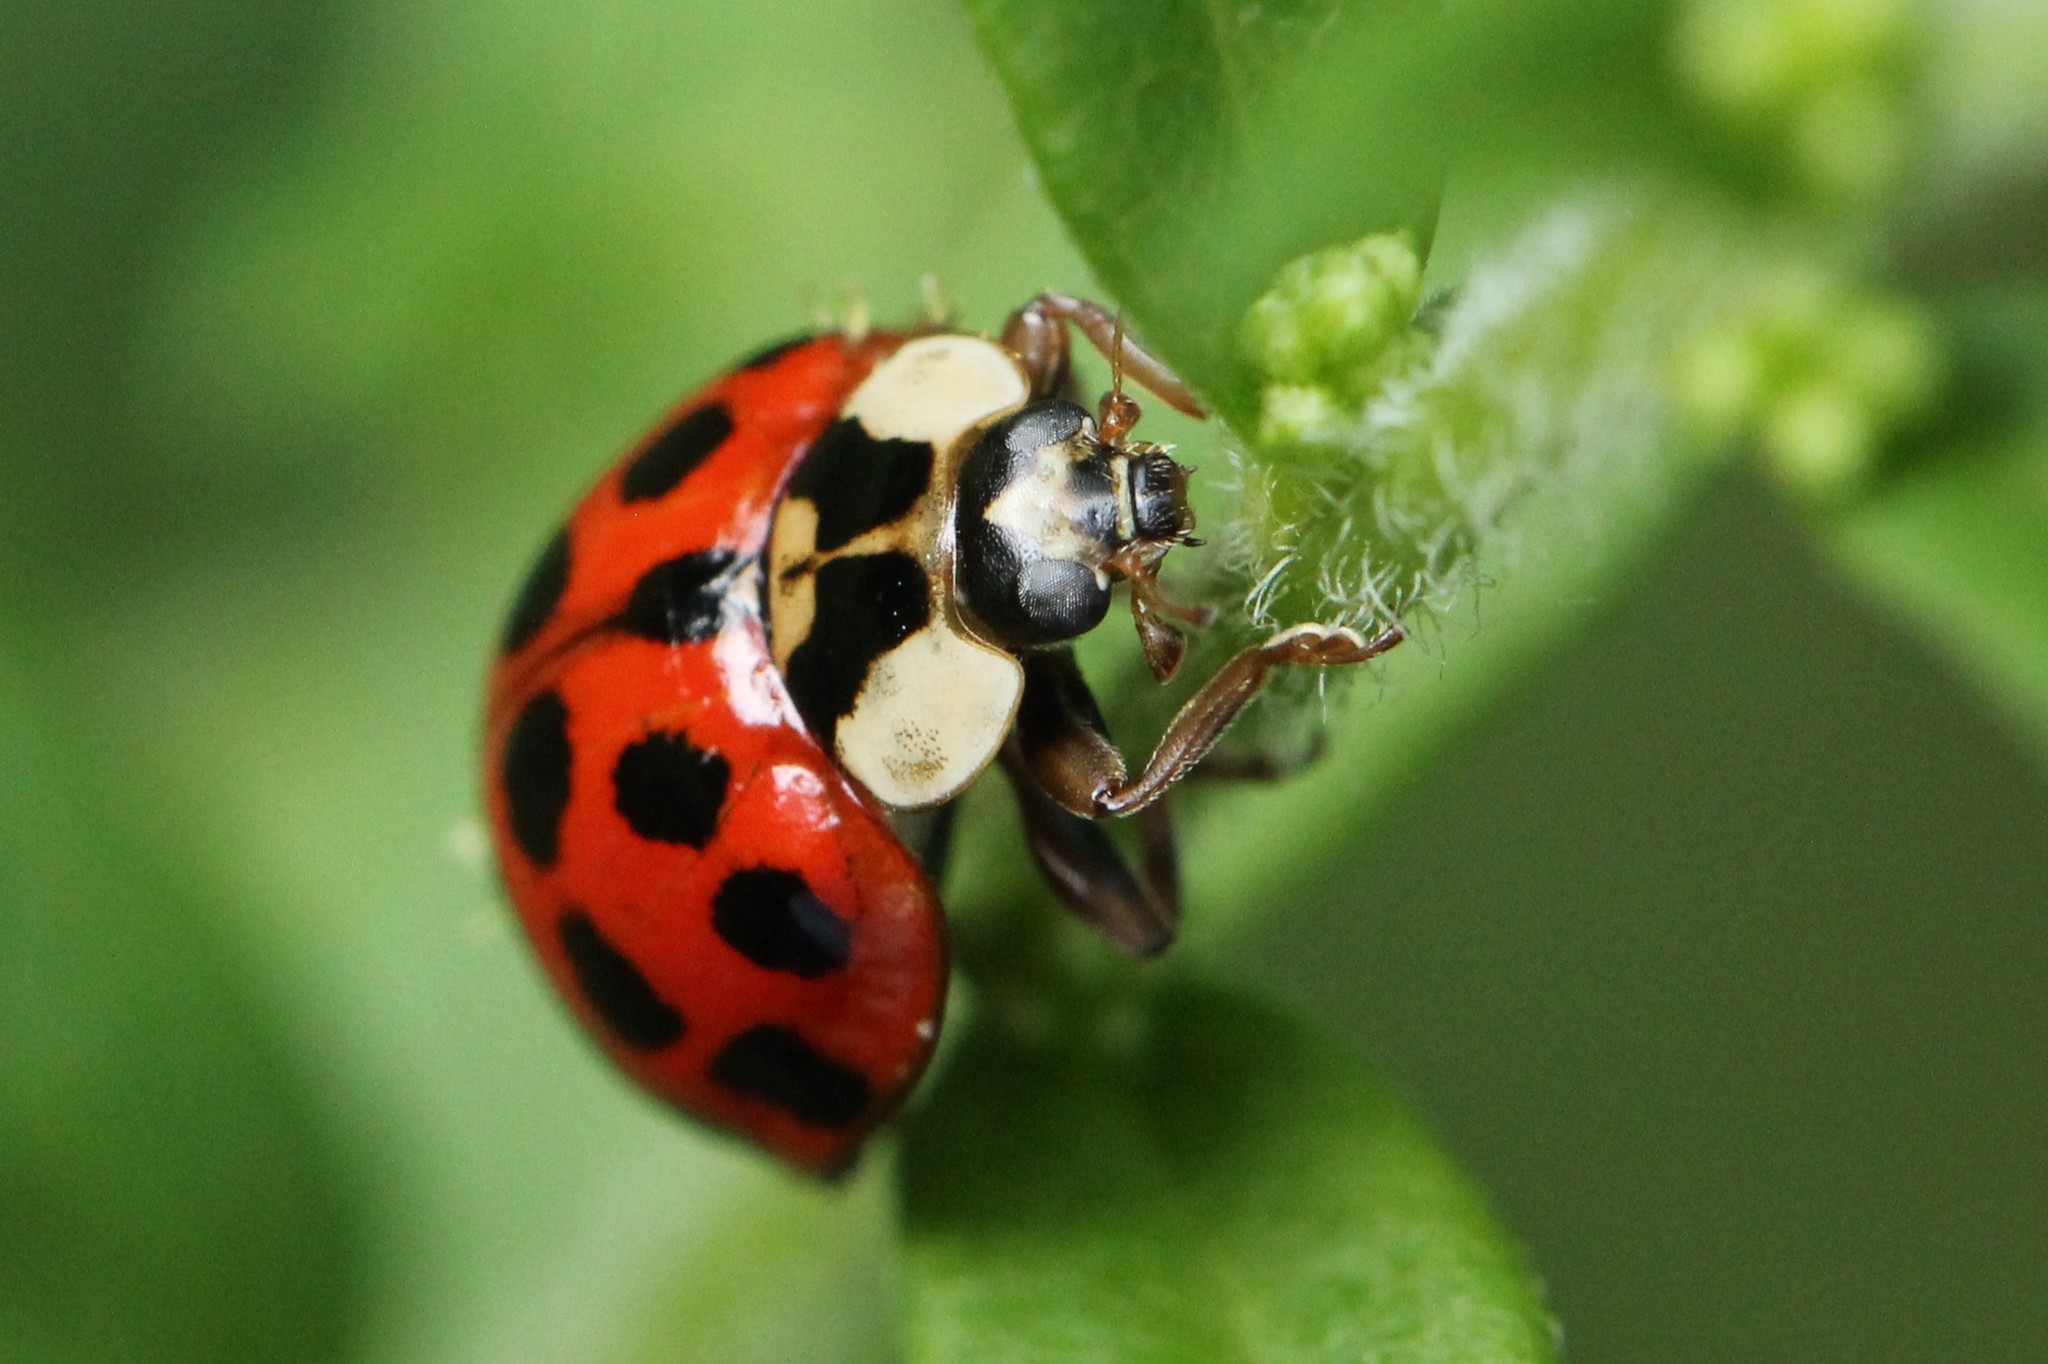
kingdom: Animalia
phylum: Arthropoda
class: Insecta
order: Coleoptera
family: Coccinellidae
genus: Harmonia
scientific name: Harmonia axyridis
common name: Harlequin ladybird
